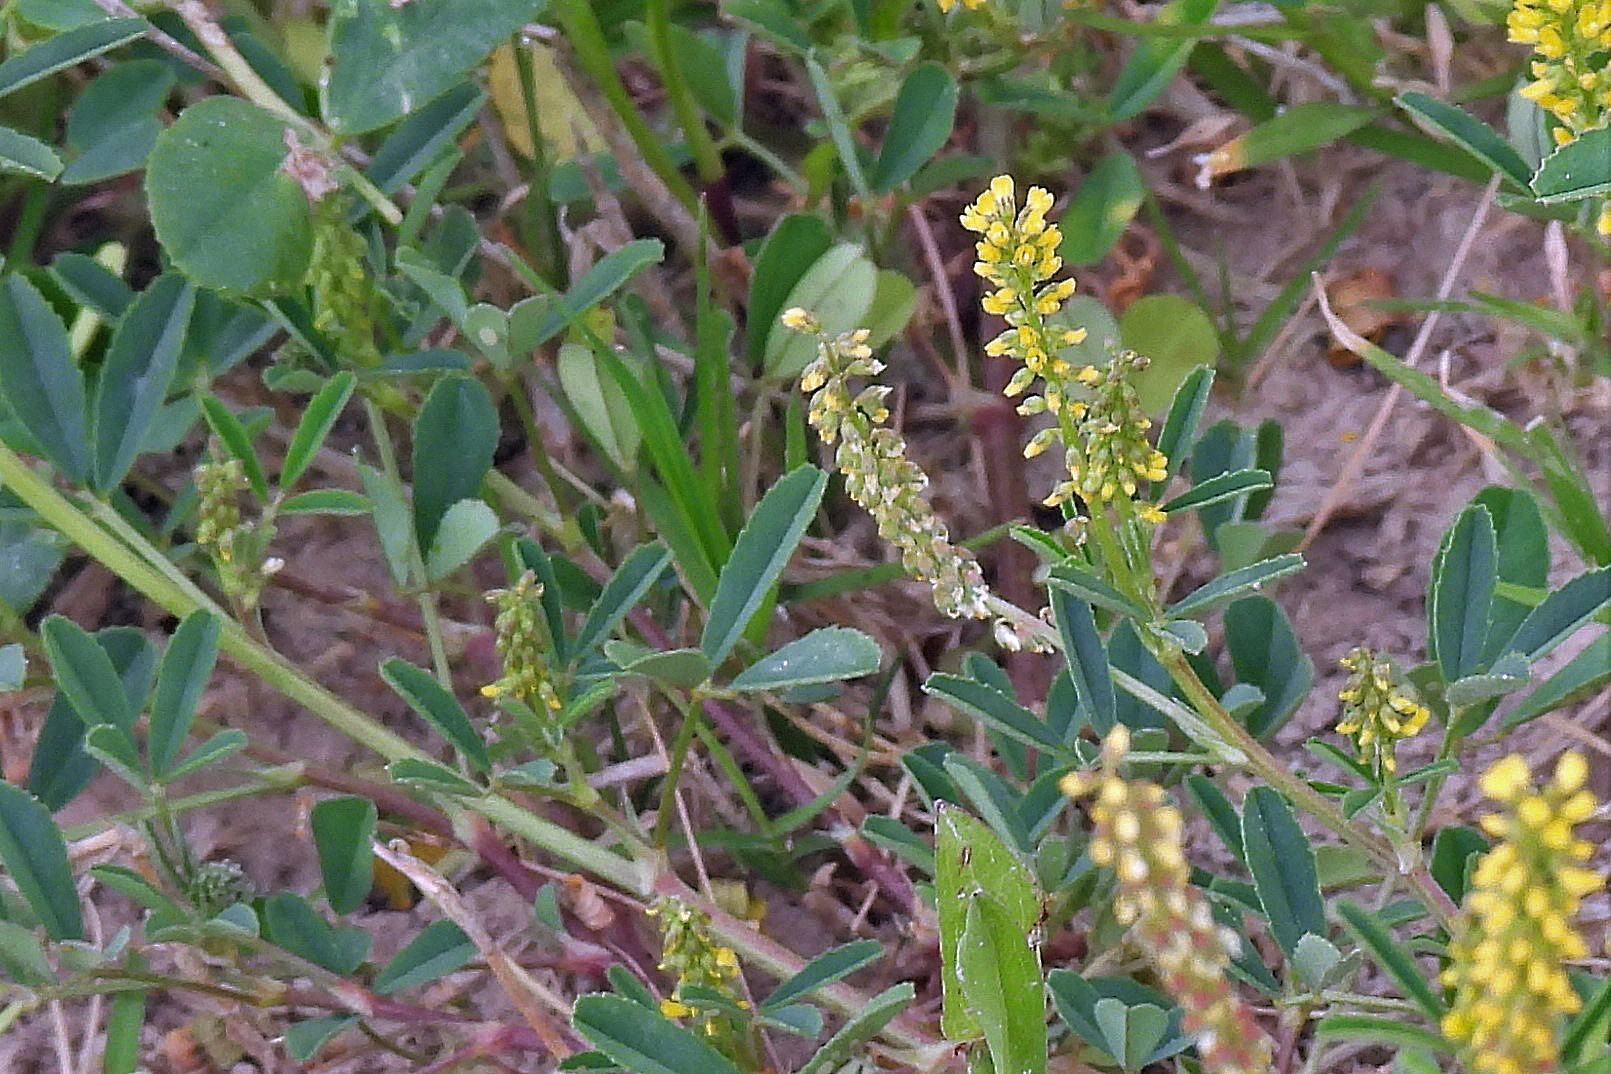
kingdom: Plantae
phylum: Tracheophyta
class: Magnoliopsida
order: Fabales
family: Fabaceae
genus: Melilotus
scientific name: Melilotus indicus
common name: Small melilot
